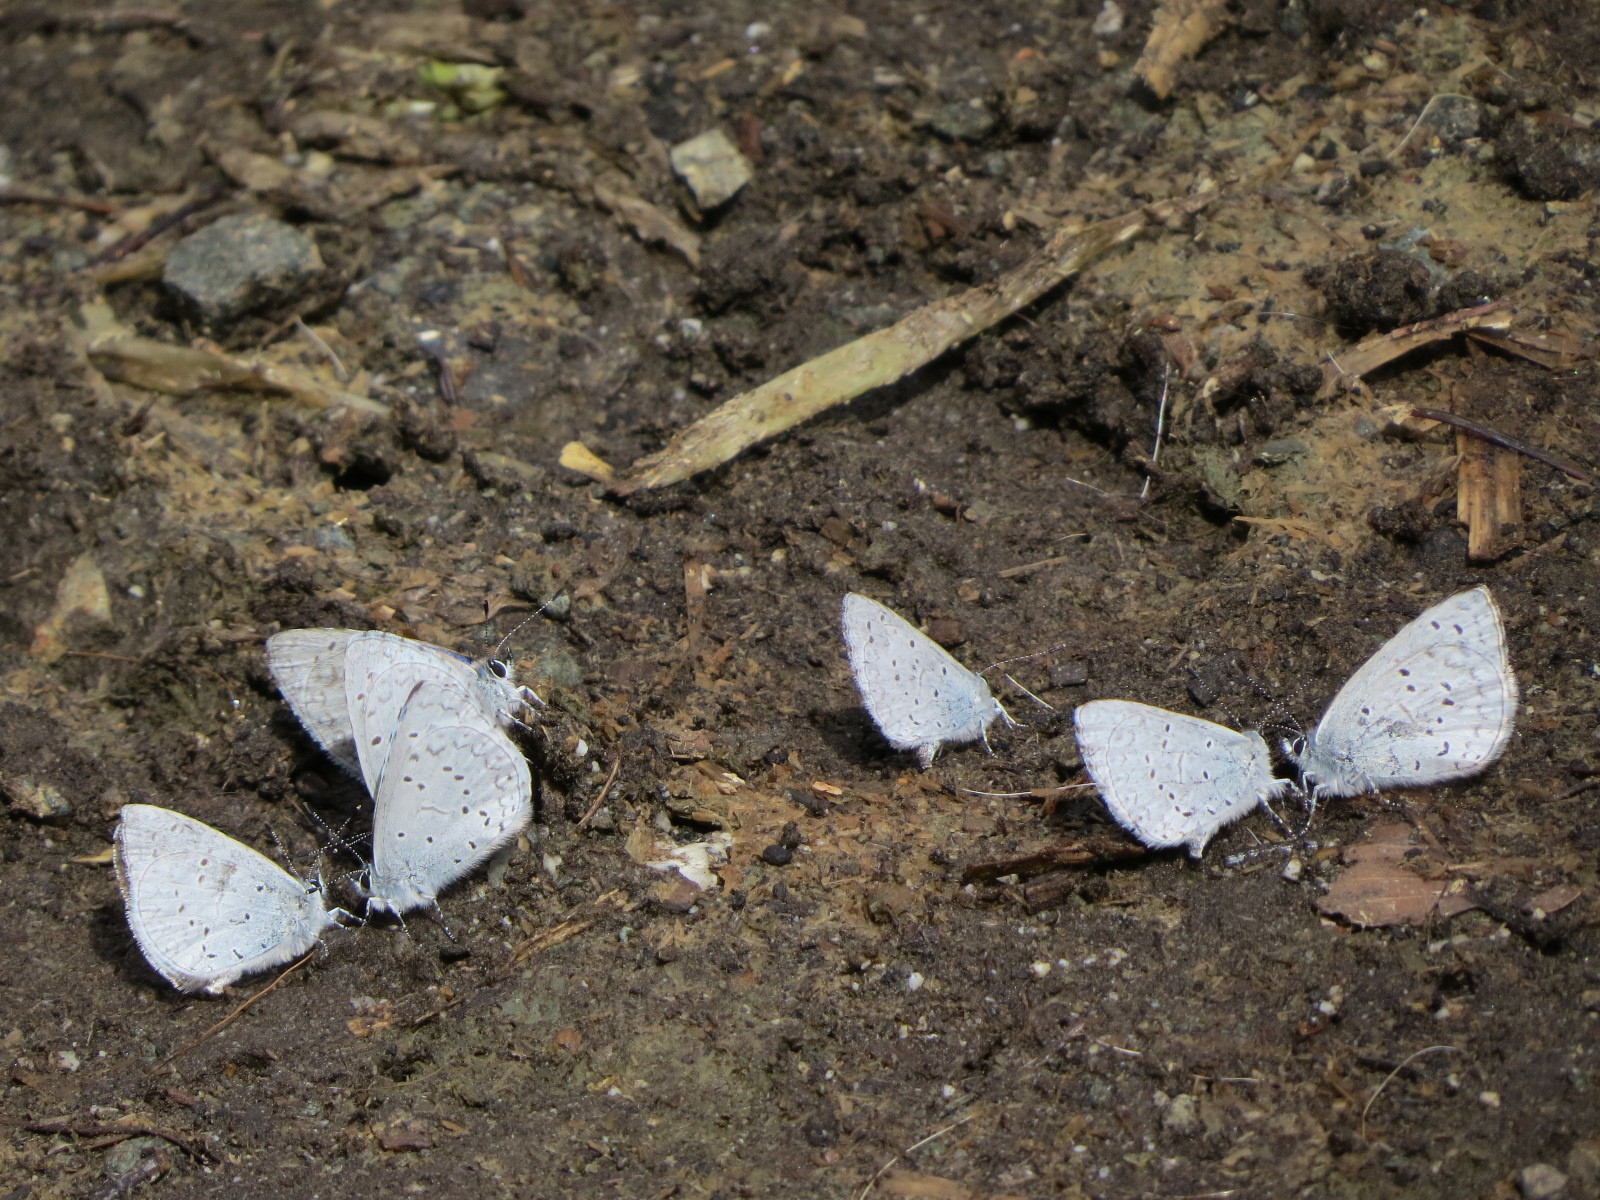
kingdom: Animalia
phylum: Arthropoda
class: Insecta
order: Lepidoptera
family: Lycaenidae
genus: Celastrina
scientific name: Celastrina ladon
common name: Spring azure
